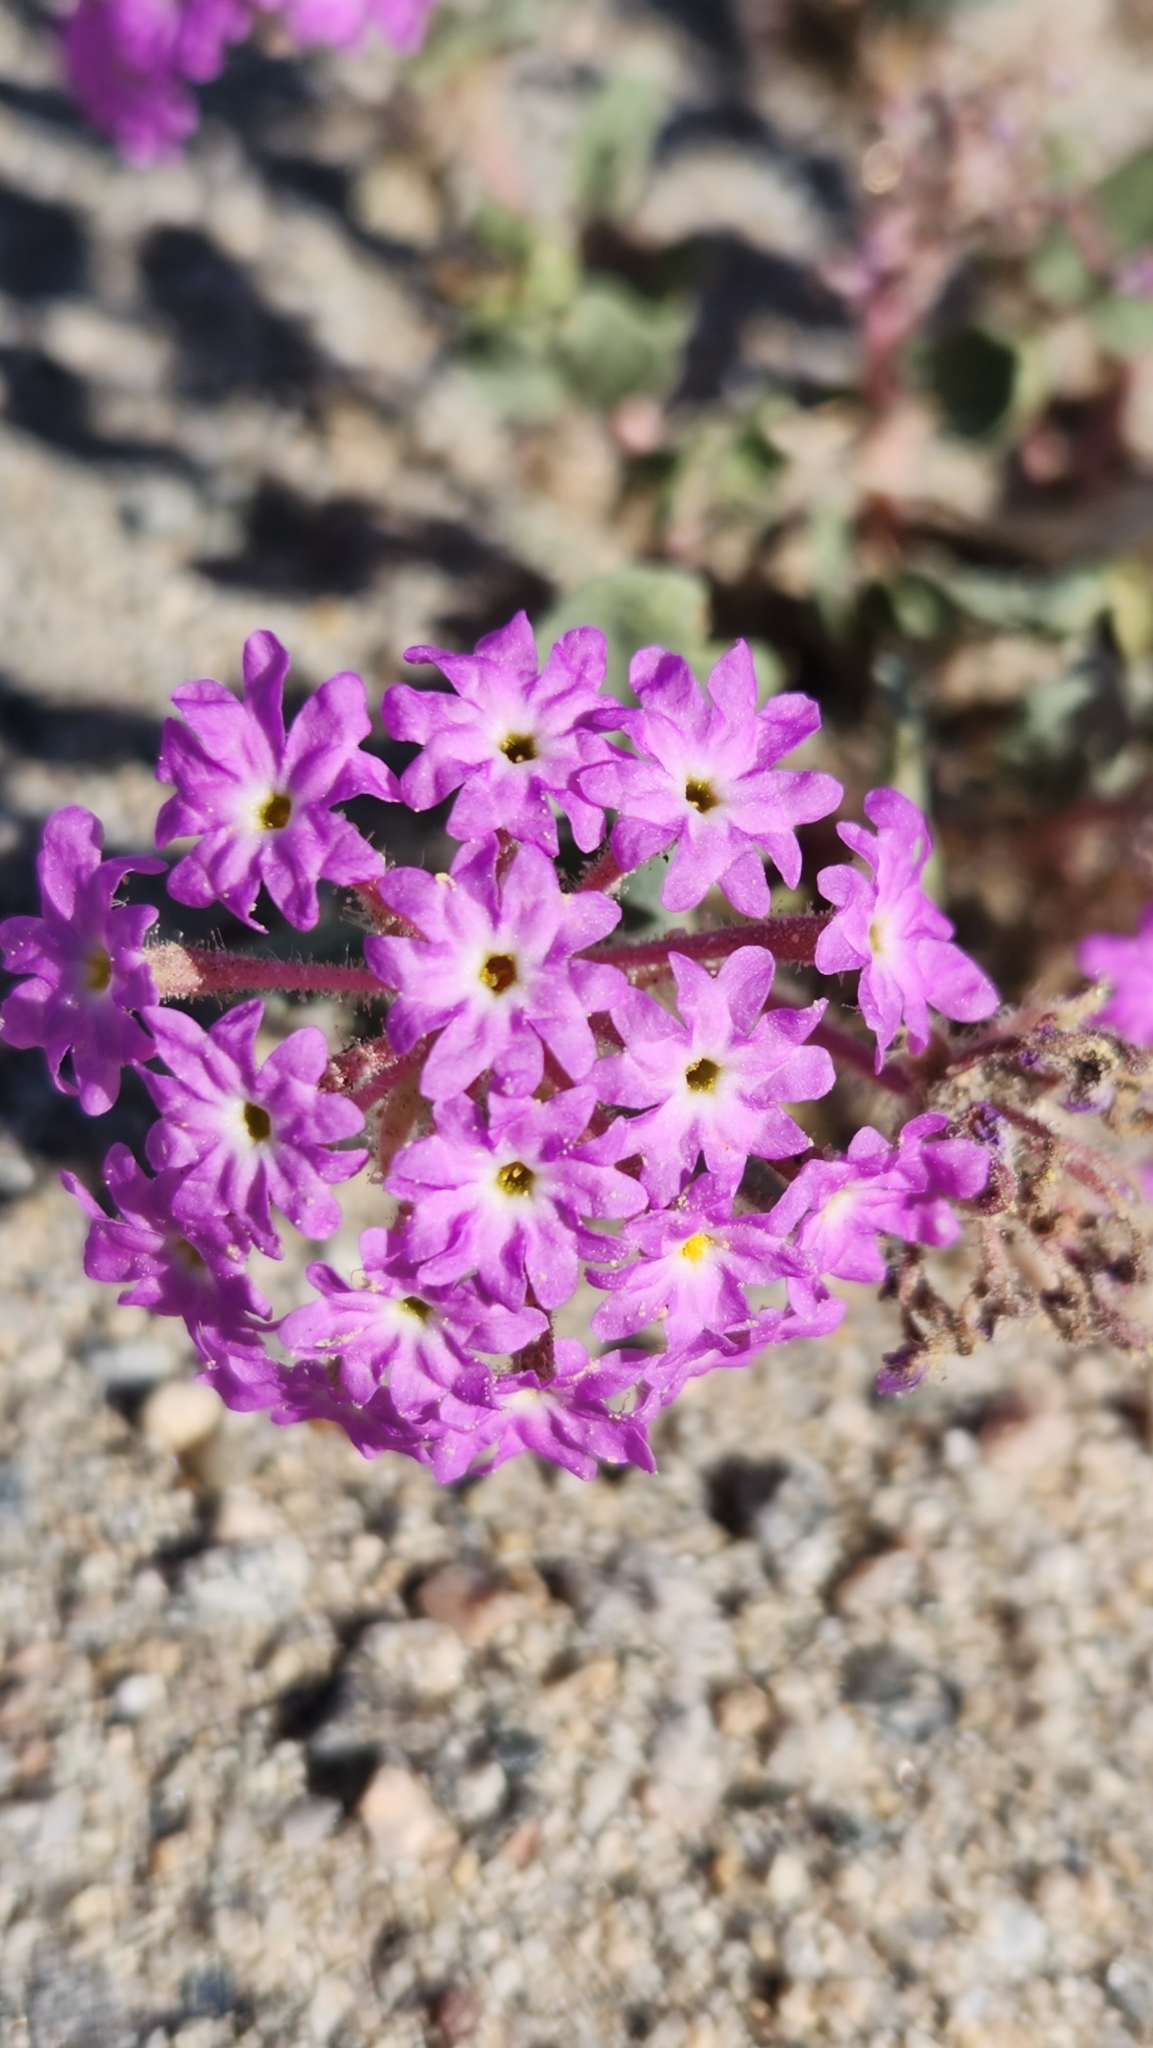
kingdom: Plantae
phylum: Tracheophyta
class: Magnoliopsida
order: Caryophyllales
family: Nyctaginaceae
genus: Abronia
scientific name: Abronia villosa
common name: Desert sand-verbena
